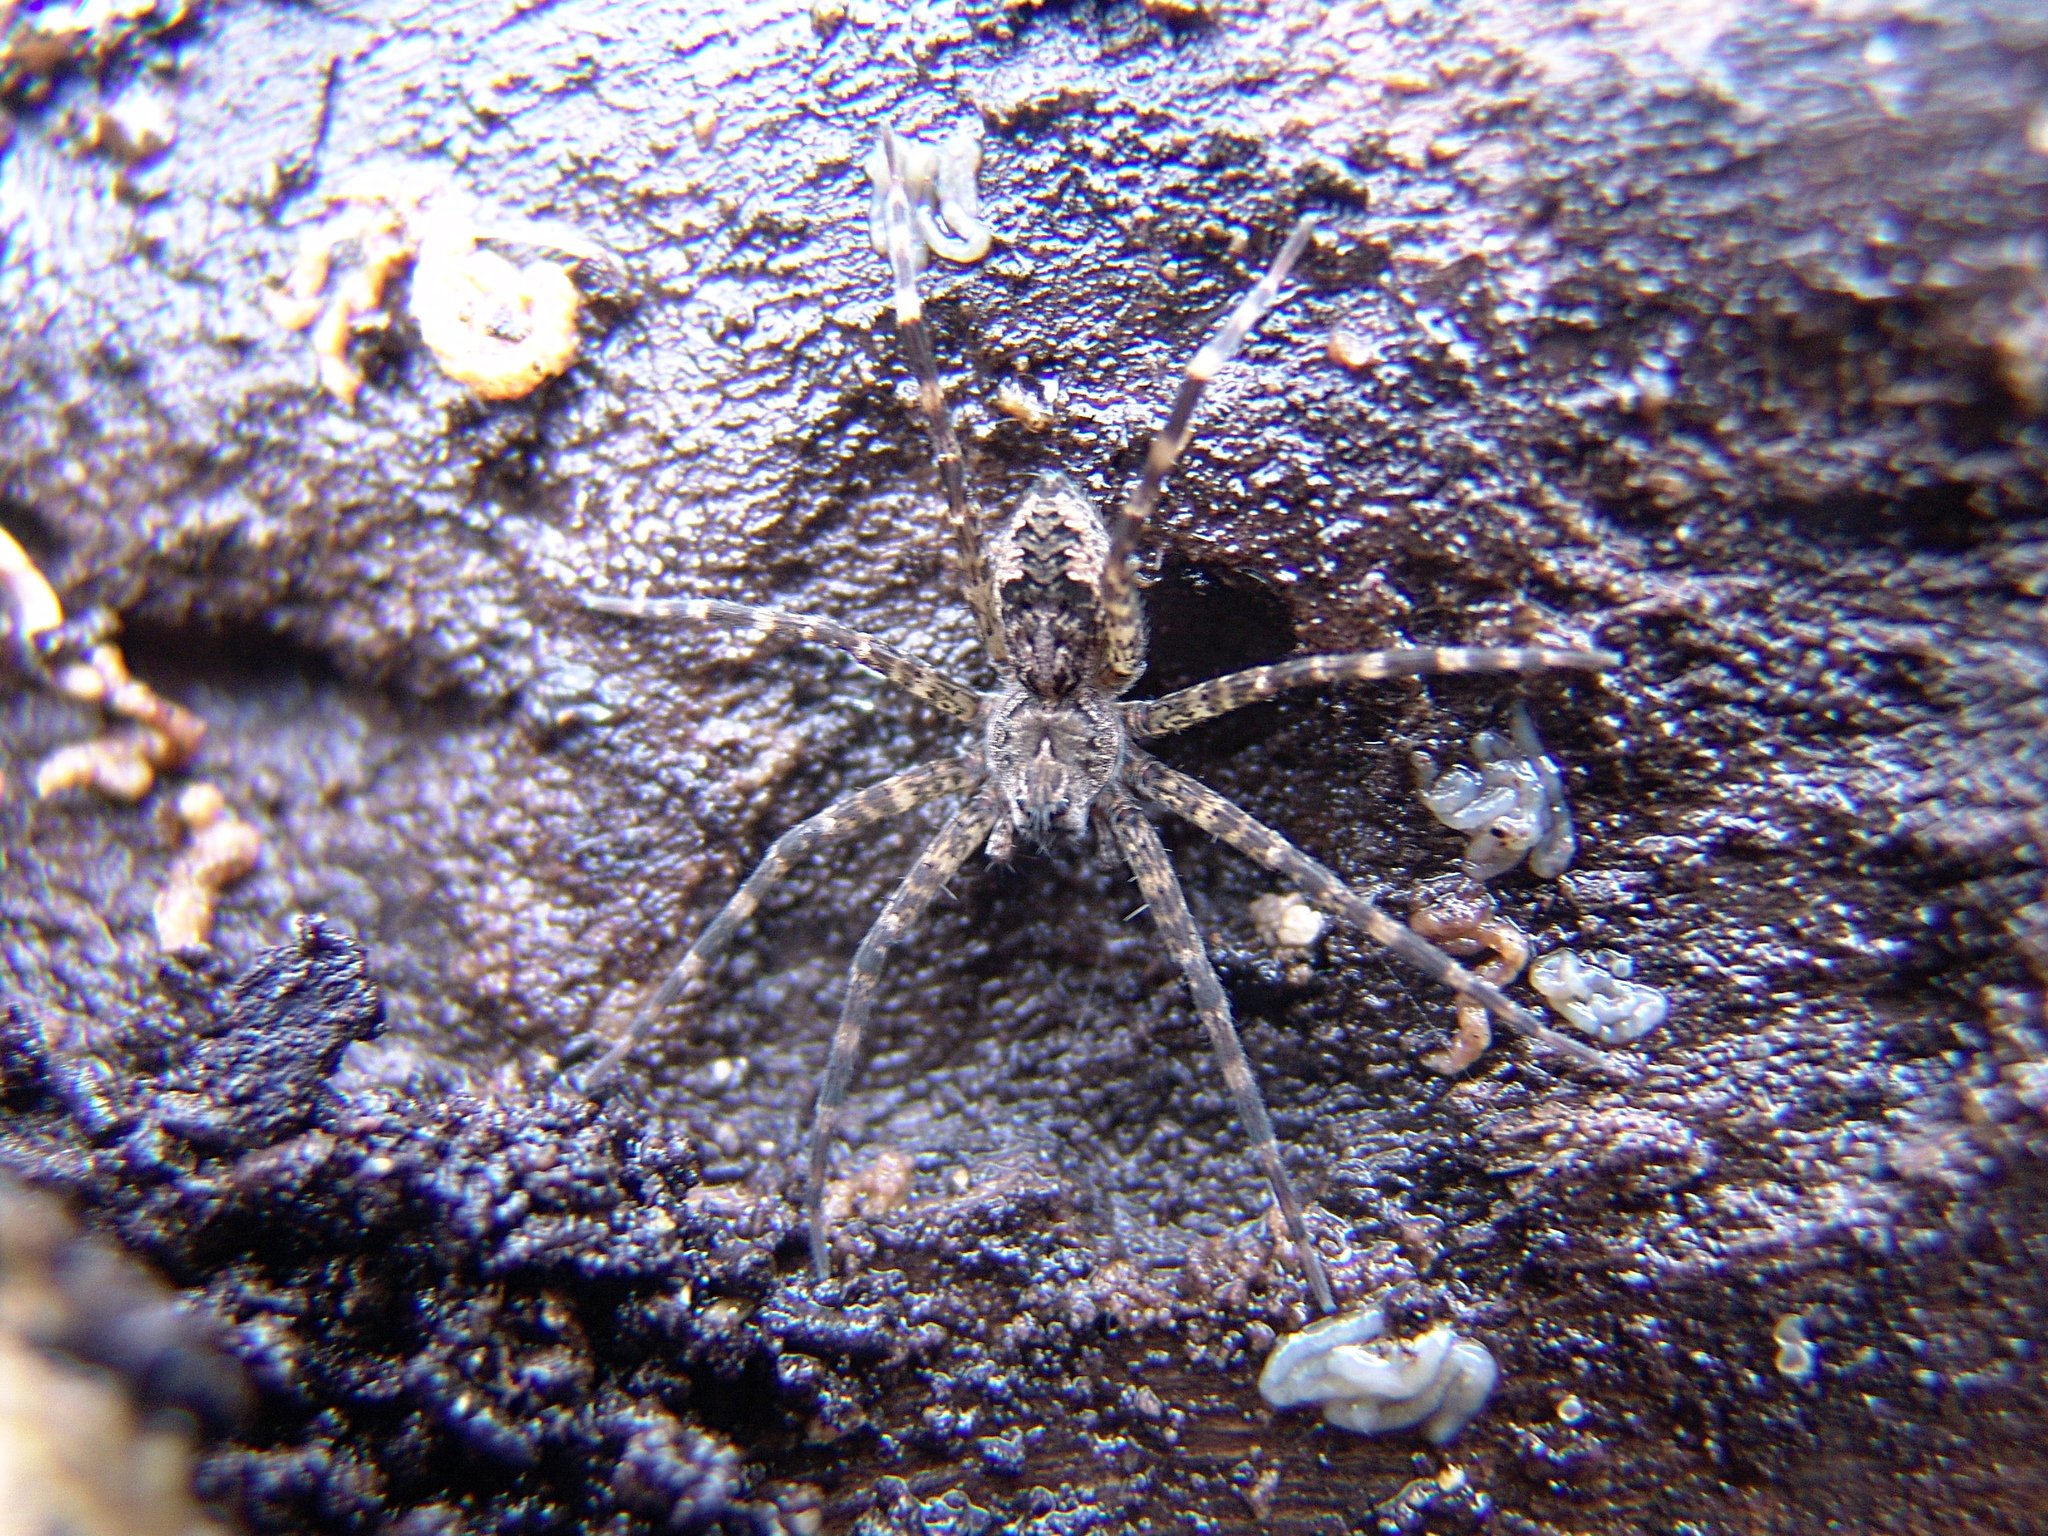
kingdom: Animalia
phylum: Arthropoda
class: Arachnida
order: Araneae
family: Pisauridae
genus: Dolomedes
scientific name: Dolomedes tenebrosus
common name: Dark fishing spider
